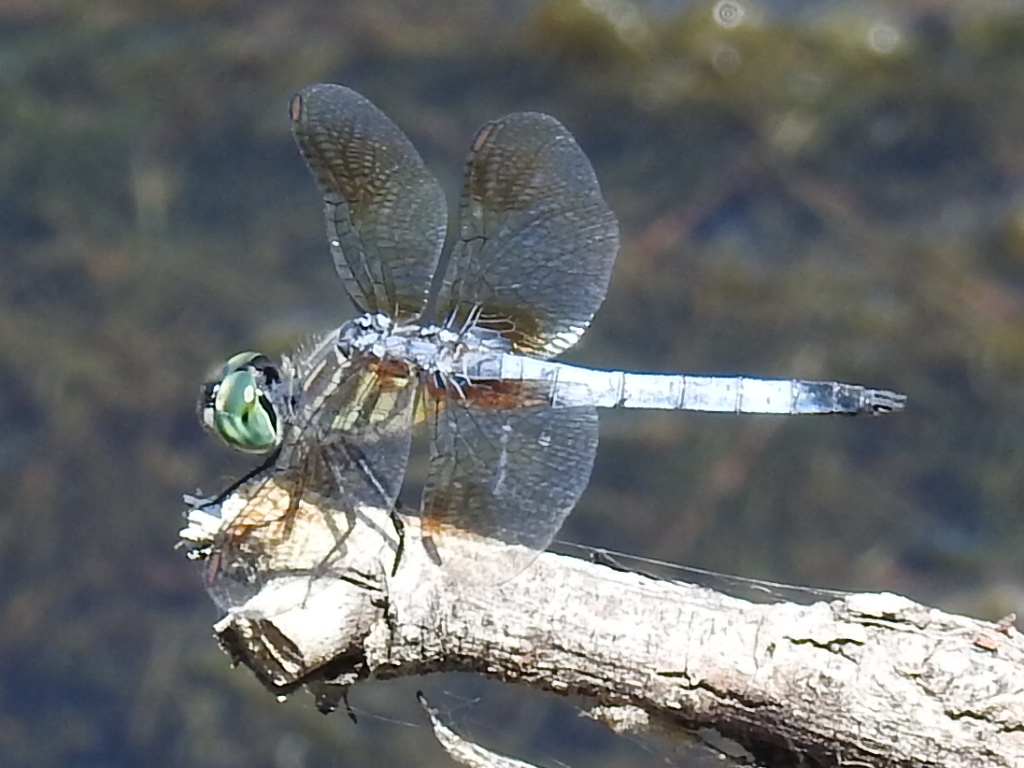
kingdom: Animalia
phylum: Arthropoda
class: Insecta
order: Odonata
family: Libellulidae
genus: Pachydiplax
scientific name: Pachydiplax longipennis
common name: Blue dasher
